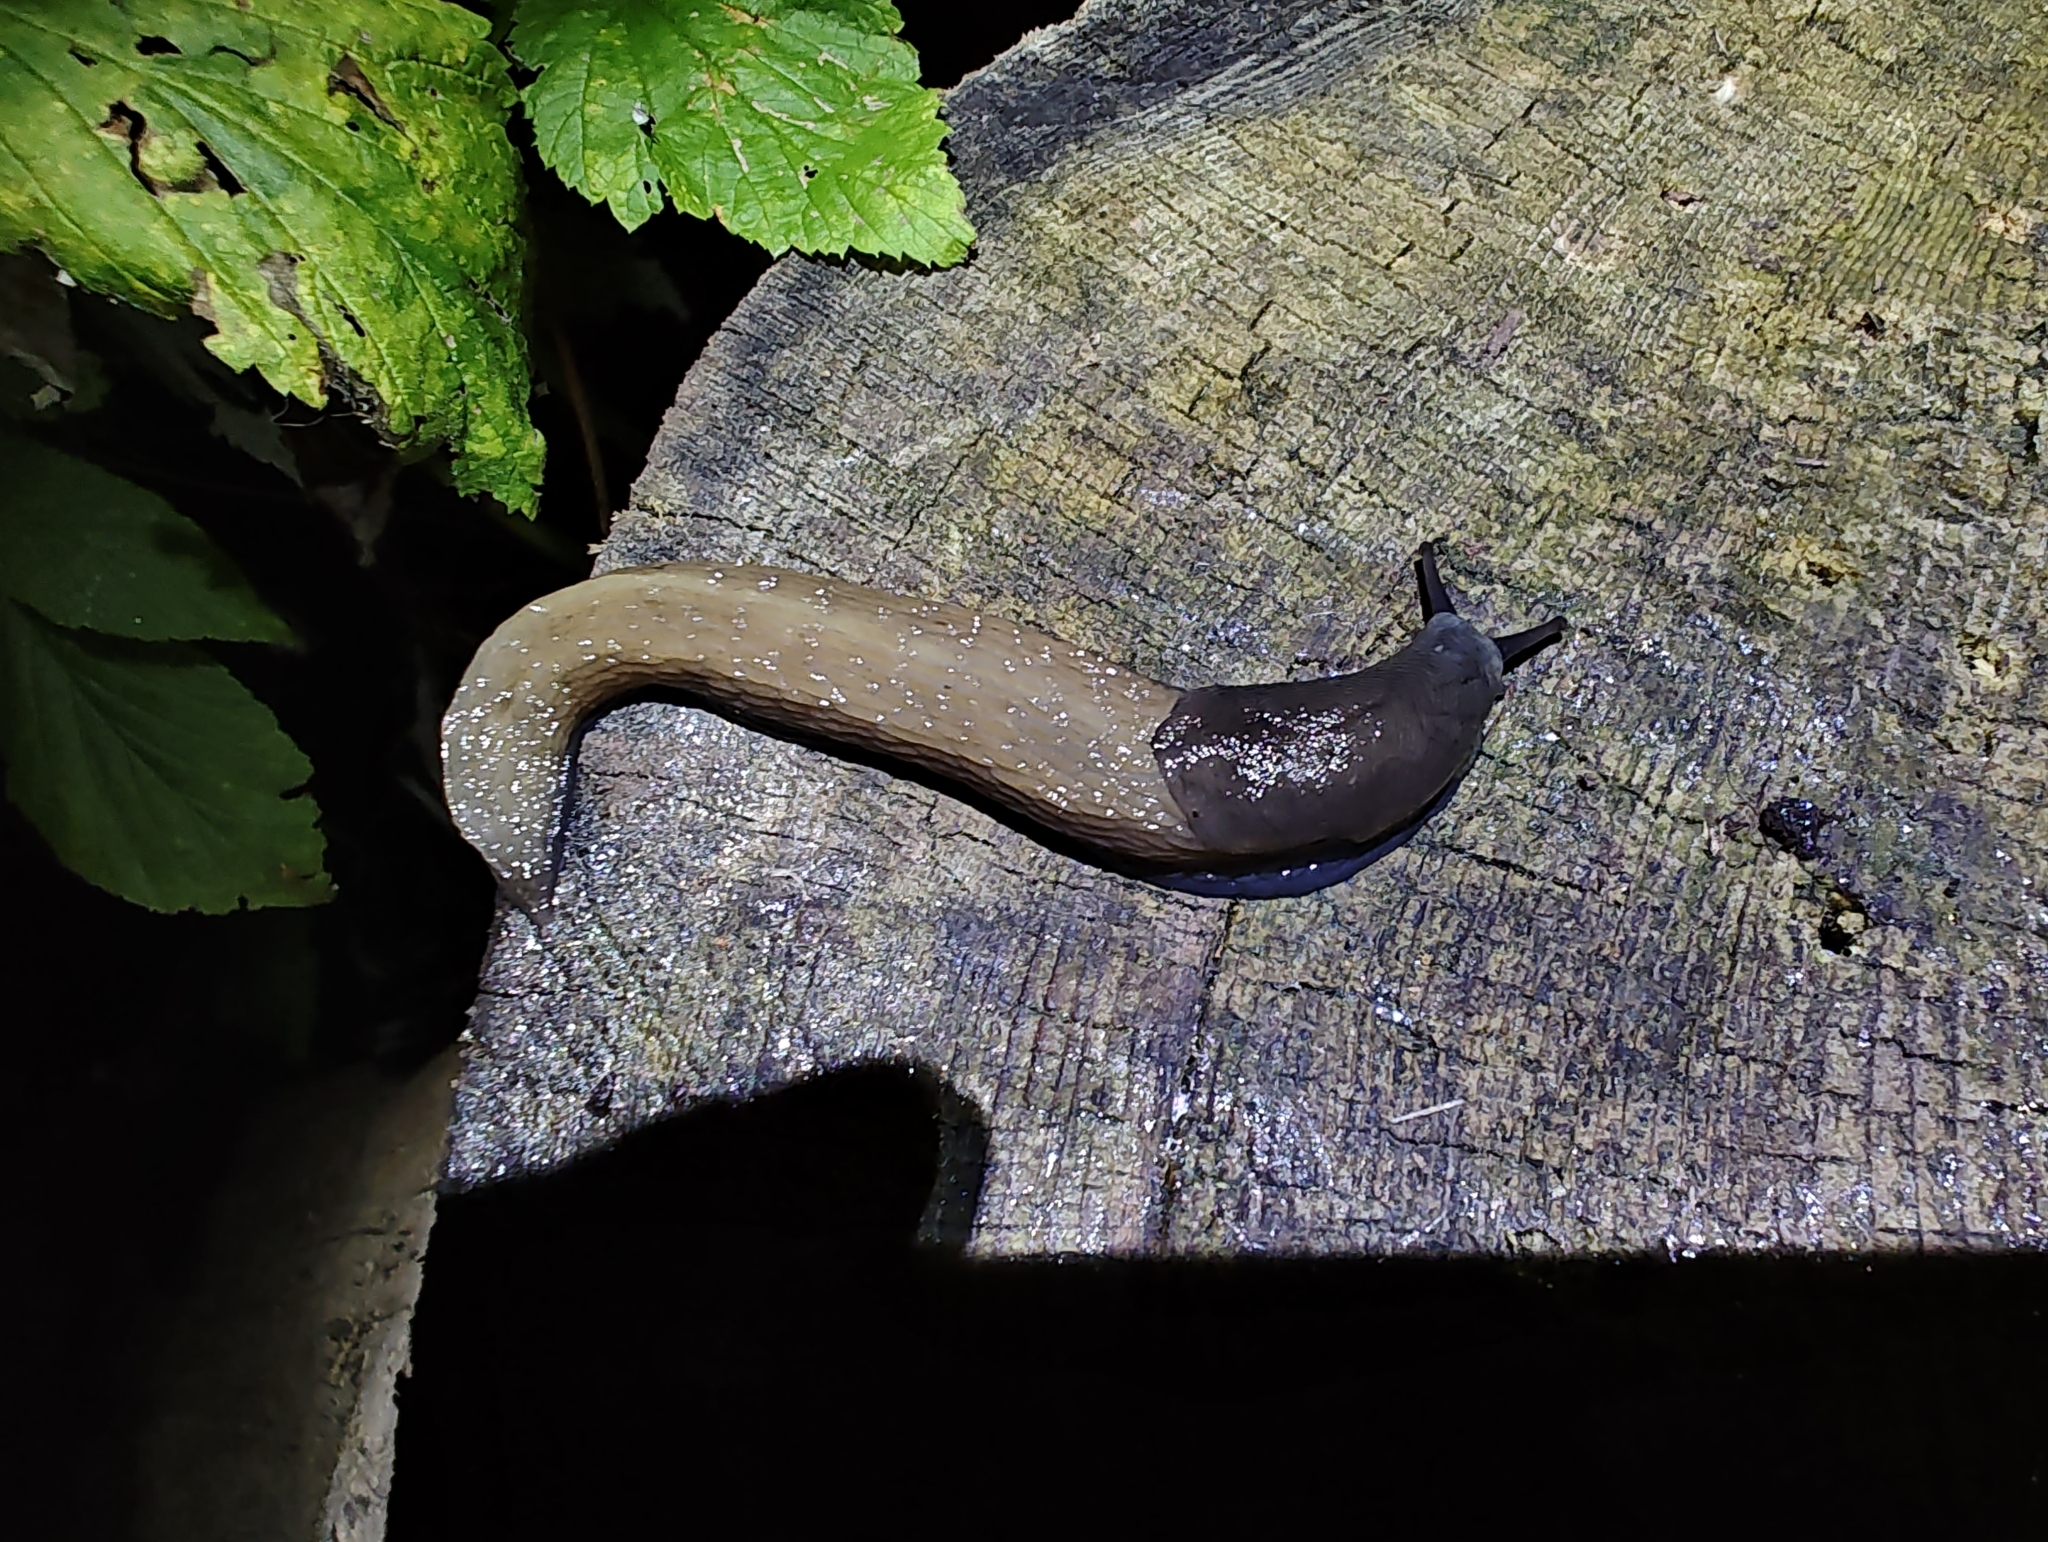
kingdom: Animalia
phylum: Mollusca
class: Gastropoda
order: Stylommatophora
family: Limacidae
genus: Limax
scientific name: Limax cinereoniger
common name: Ash-black slug
